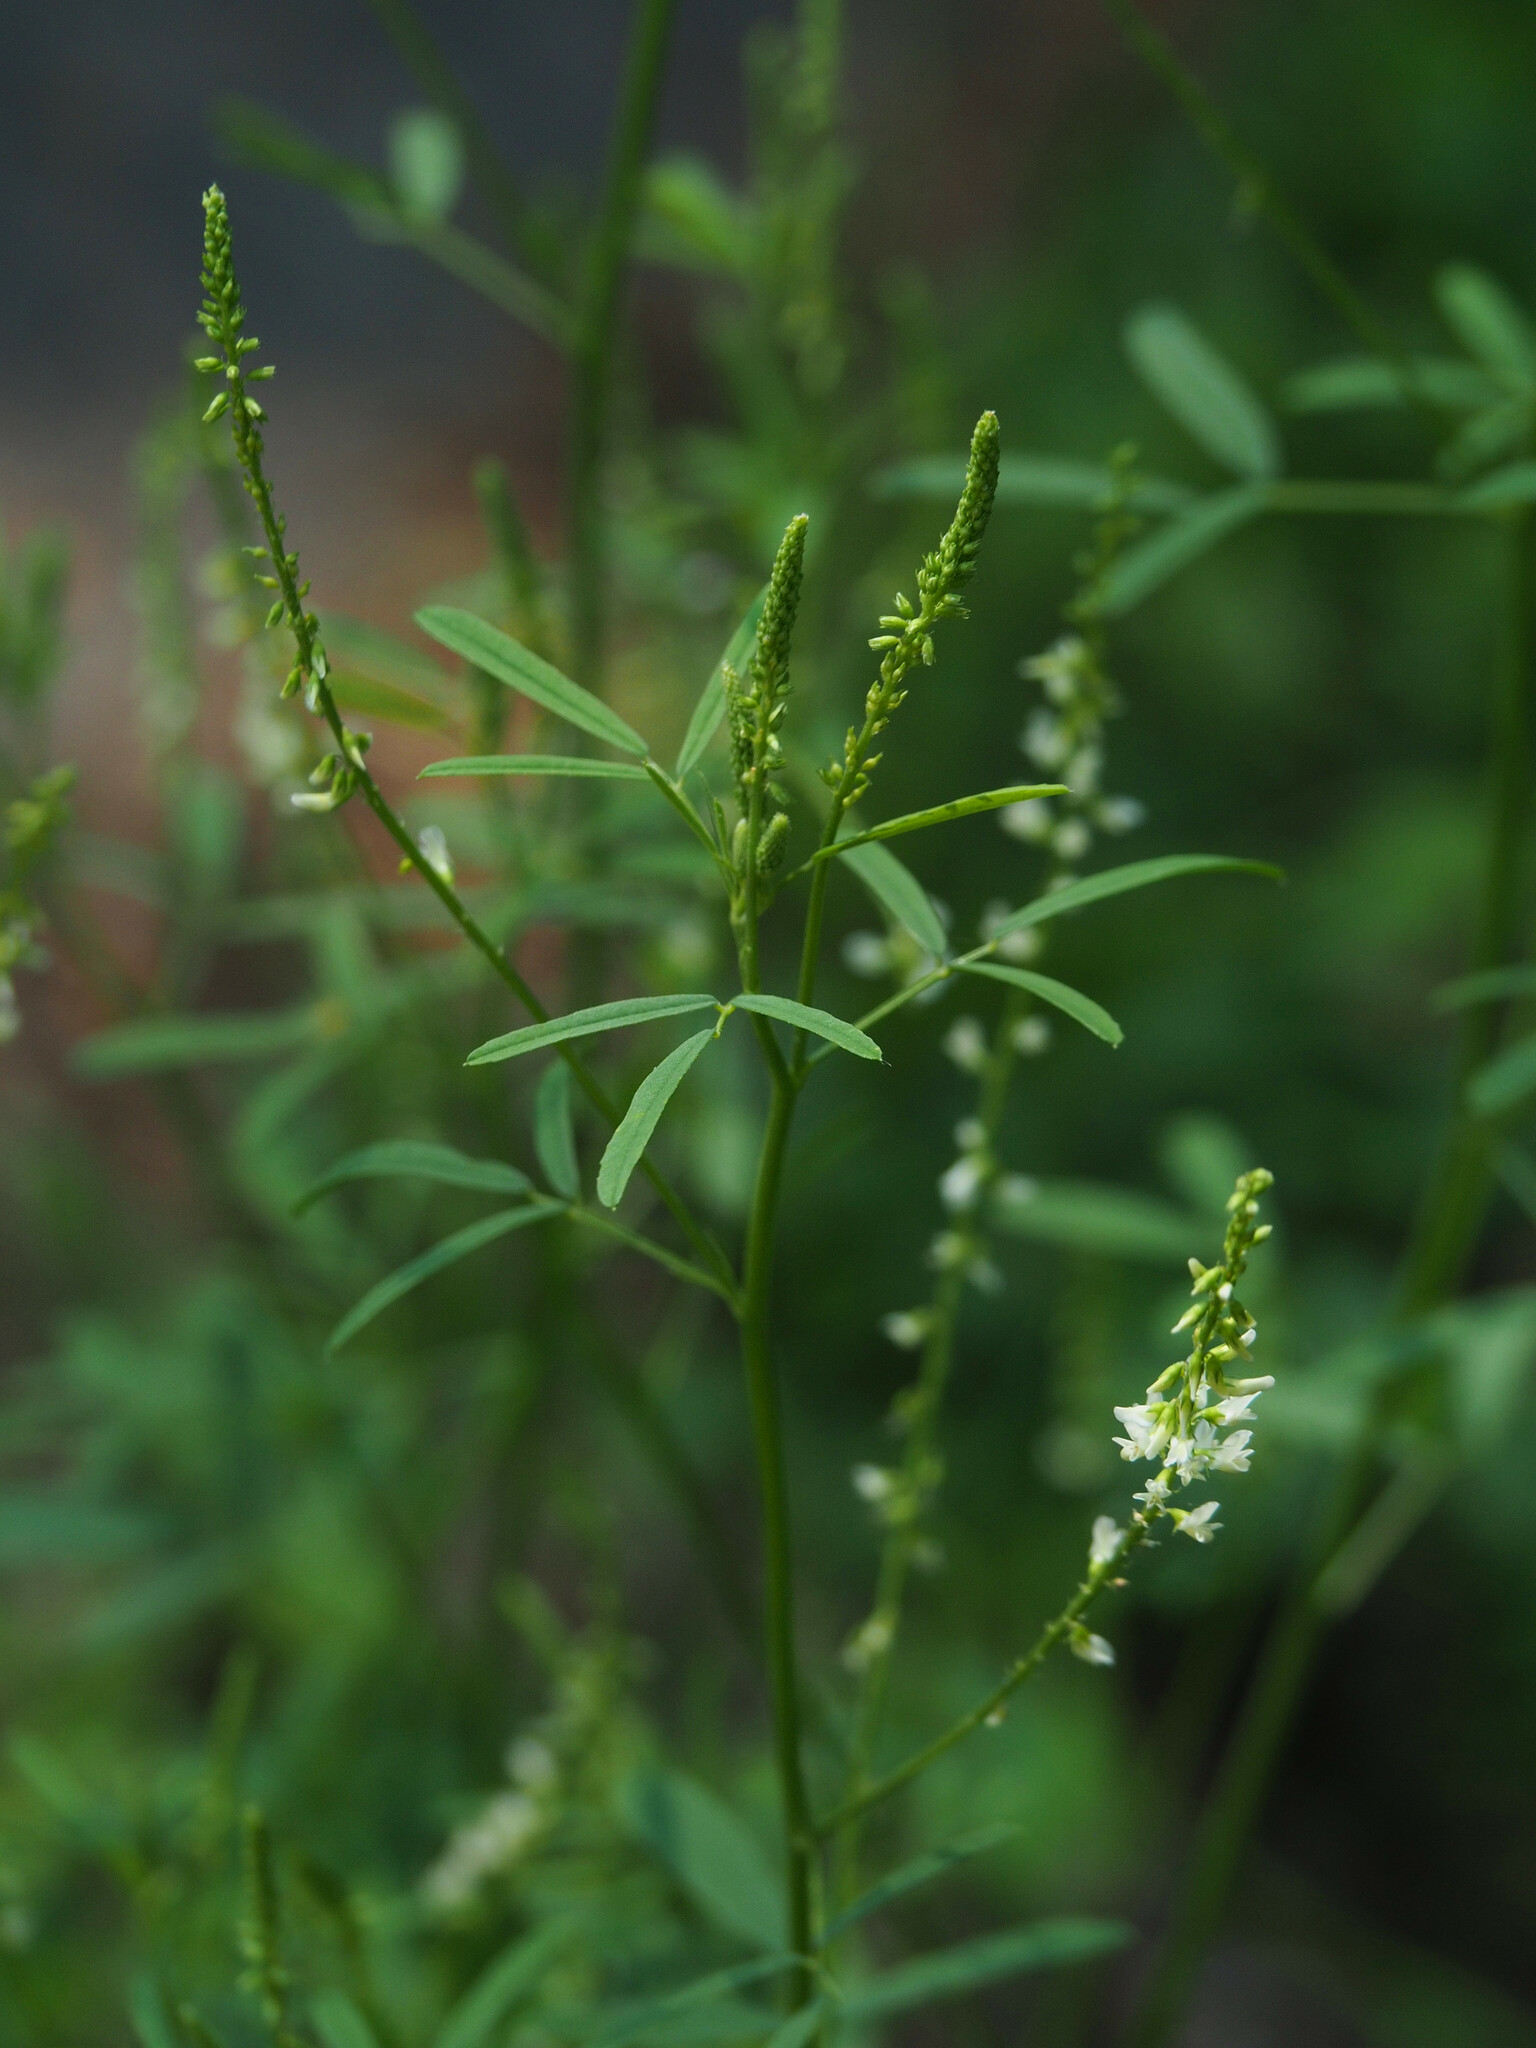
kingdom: Plantae
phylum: Tracheophyta
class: Magnoliopsida
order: Fabales
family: Fabaceae
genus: Melilotus
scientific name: Melilotus albus
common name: White melilot
